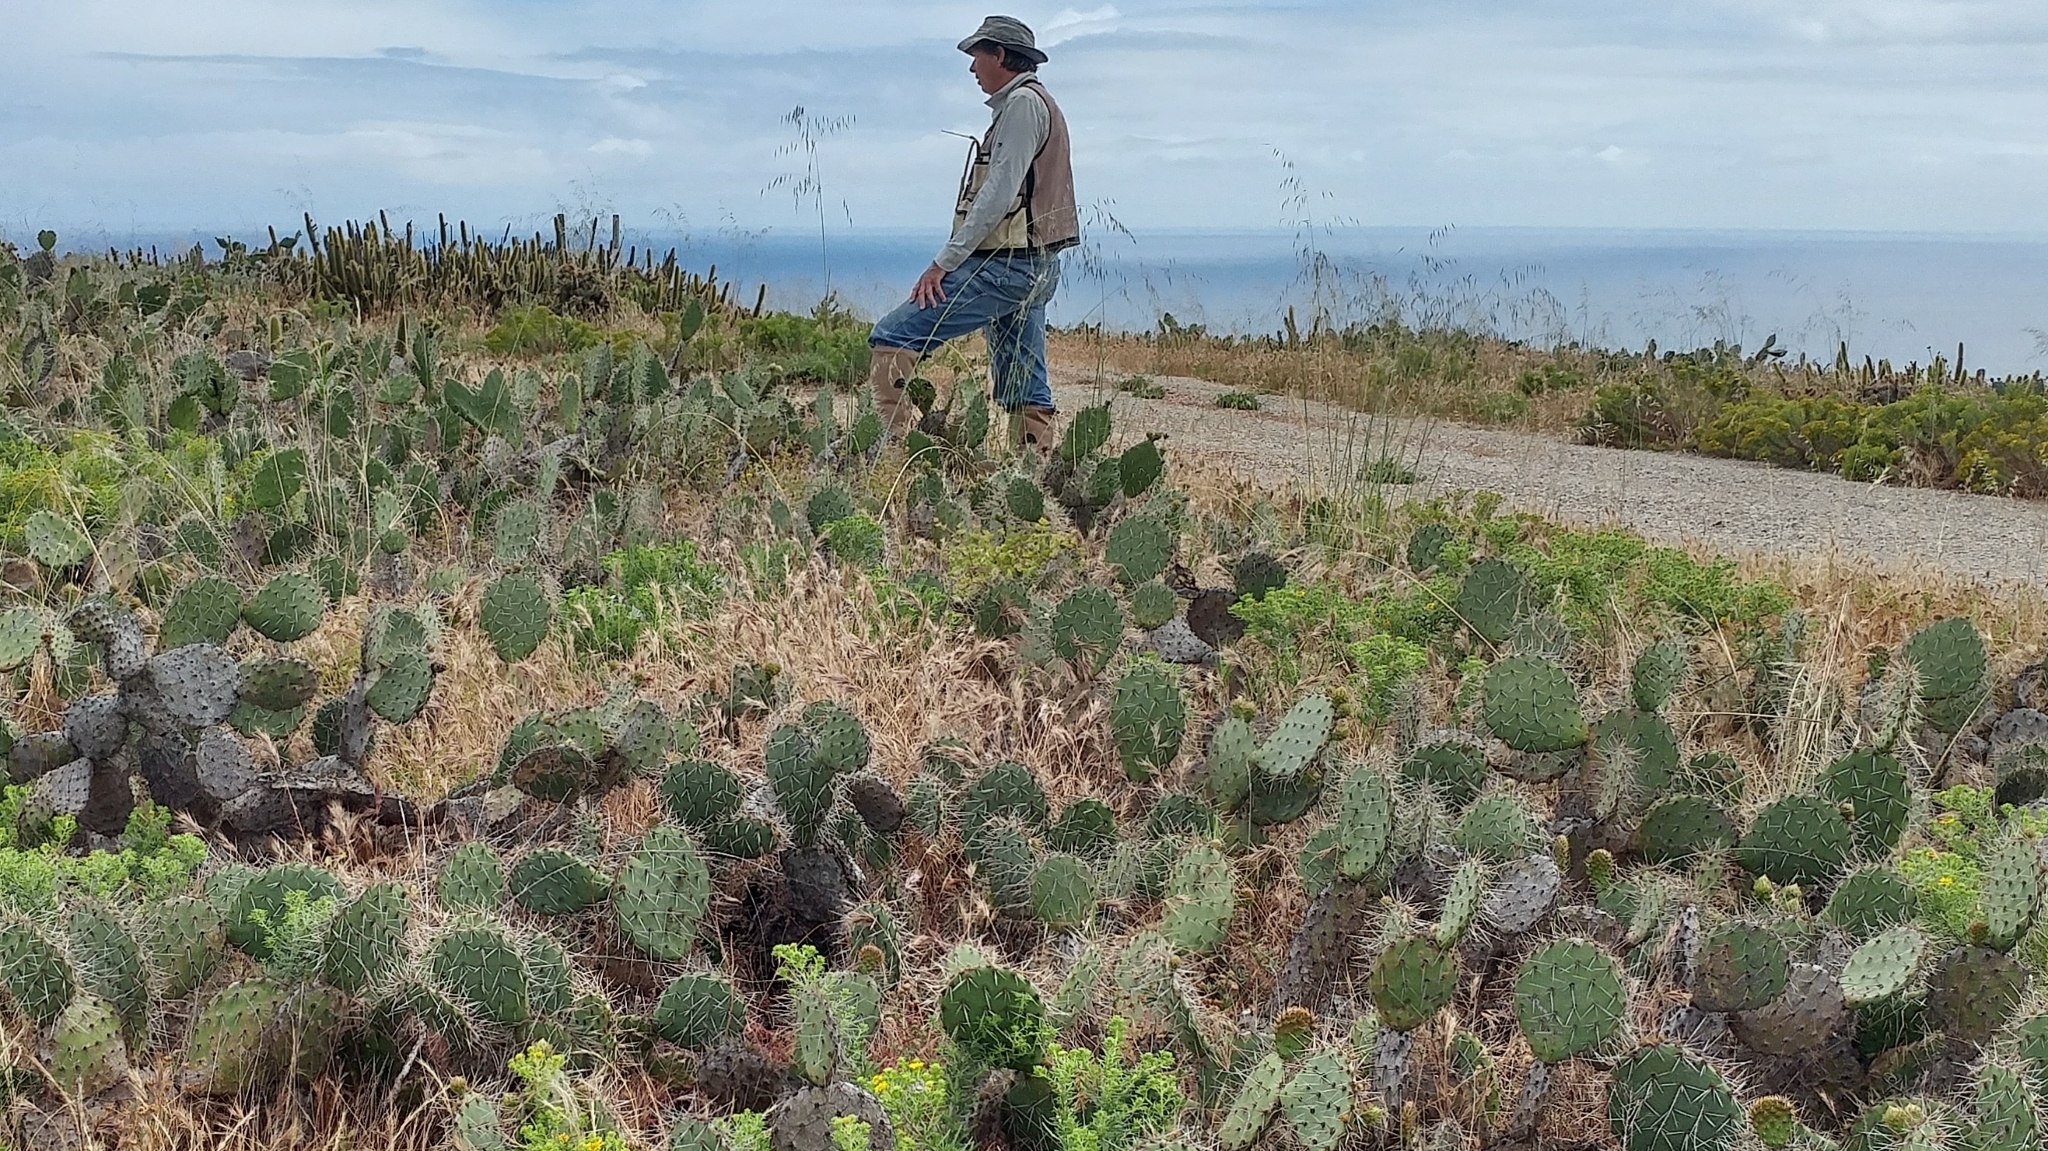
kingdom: Plantae
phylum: Tracheophyta
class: Magnoliopsida
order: Caryophyllales
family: Cactaceae
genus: Opuntia
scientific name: Opuntia littoralis
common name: Coastal prickly-pear
